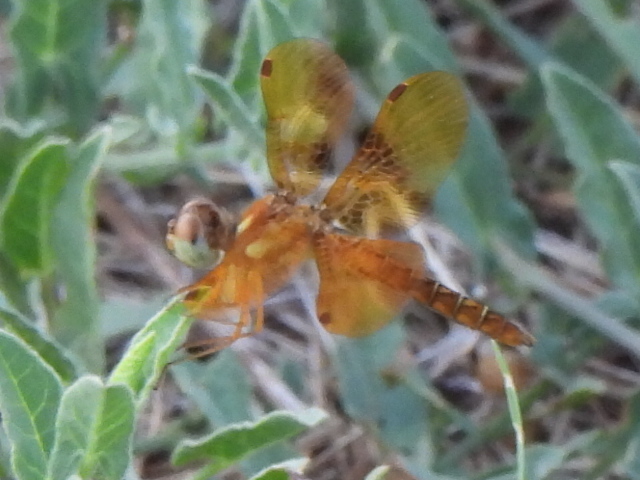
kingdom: Animalia
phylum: Arthropoda
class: Insecta
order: Odonata
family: Libellulidae
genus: Perithemis
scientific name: Perithemis tenera
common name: Eastern amberwing
